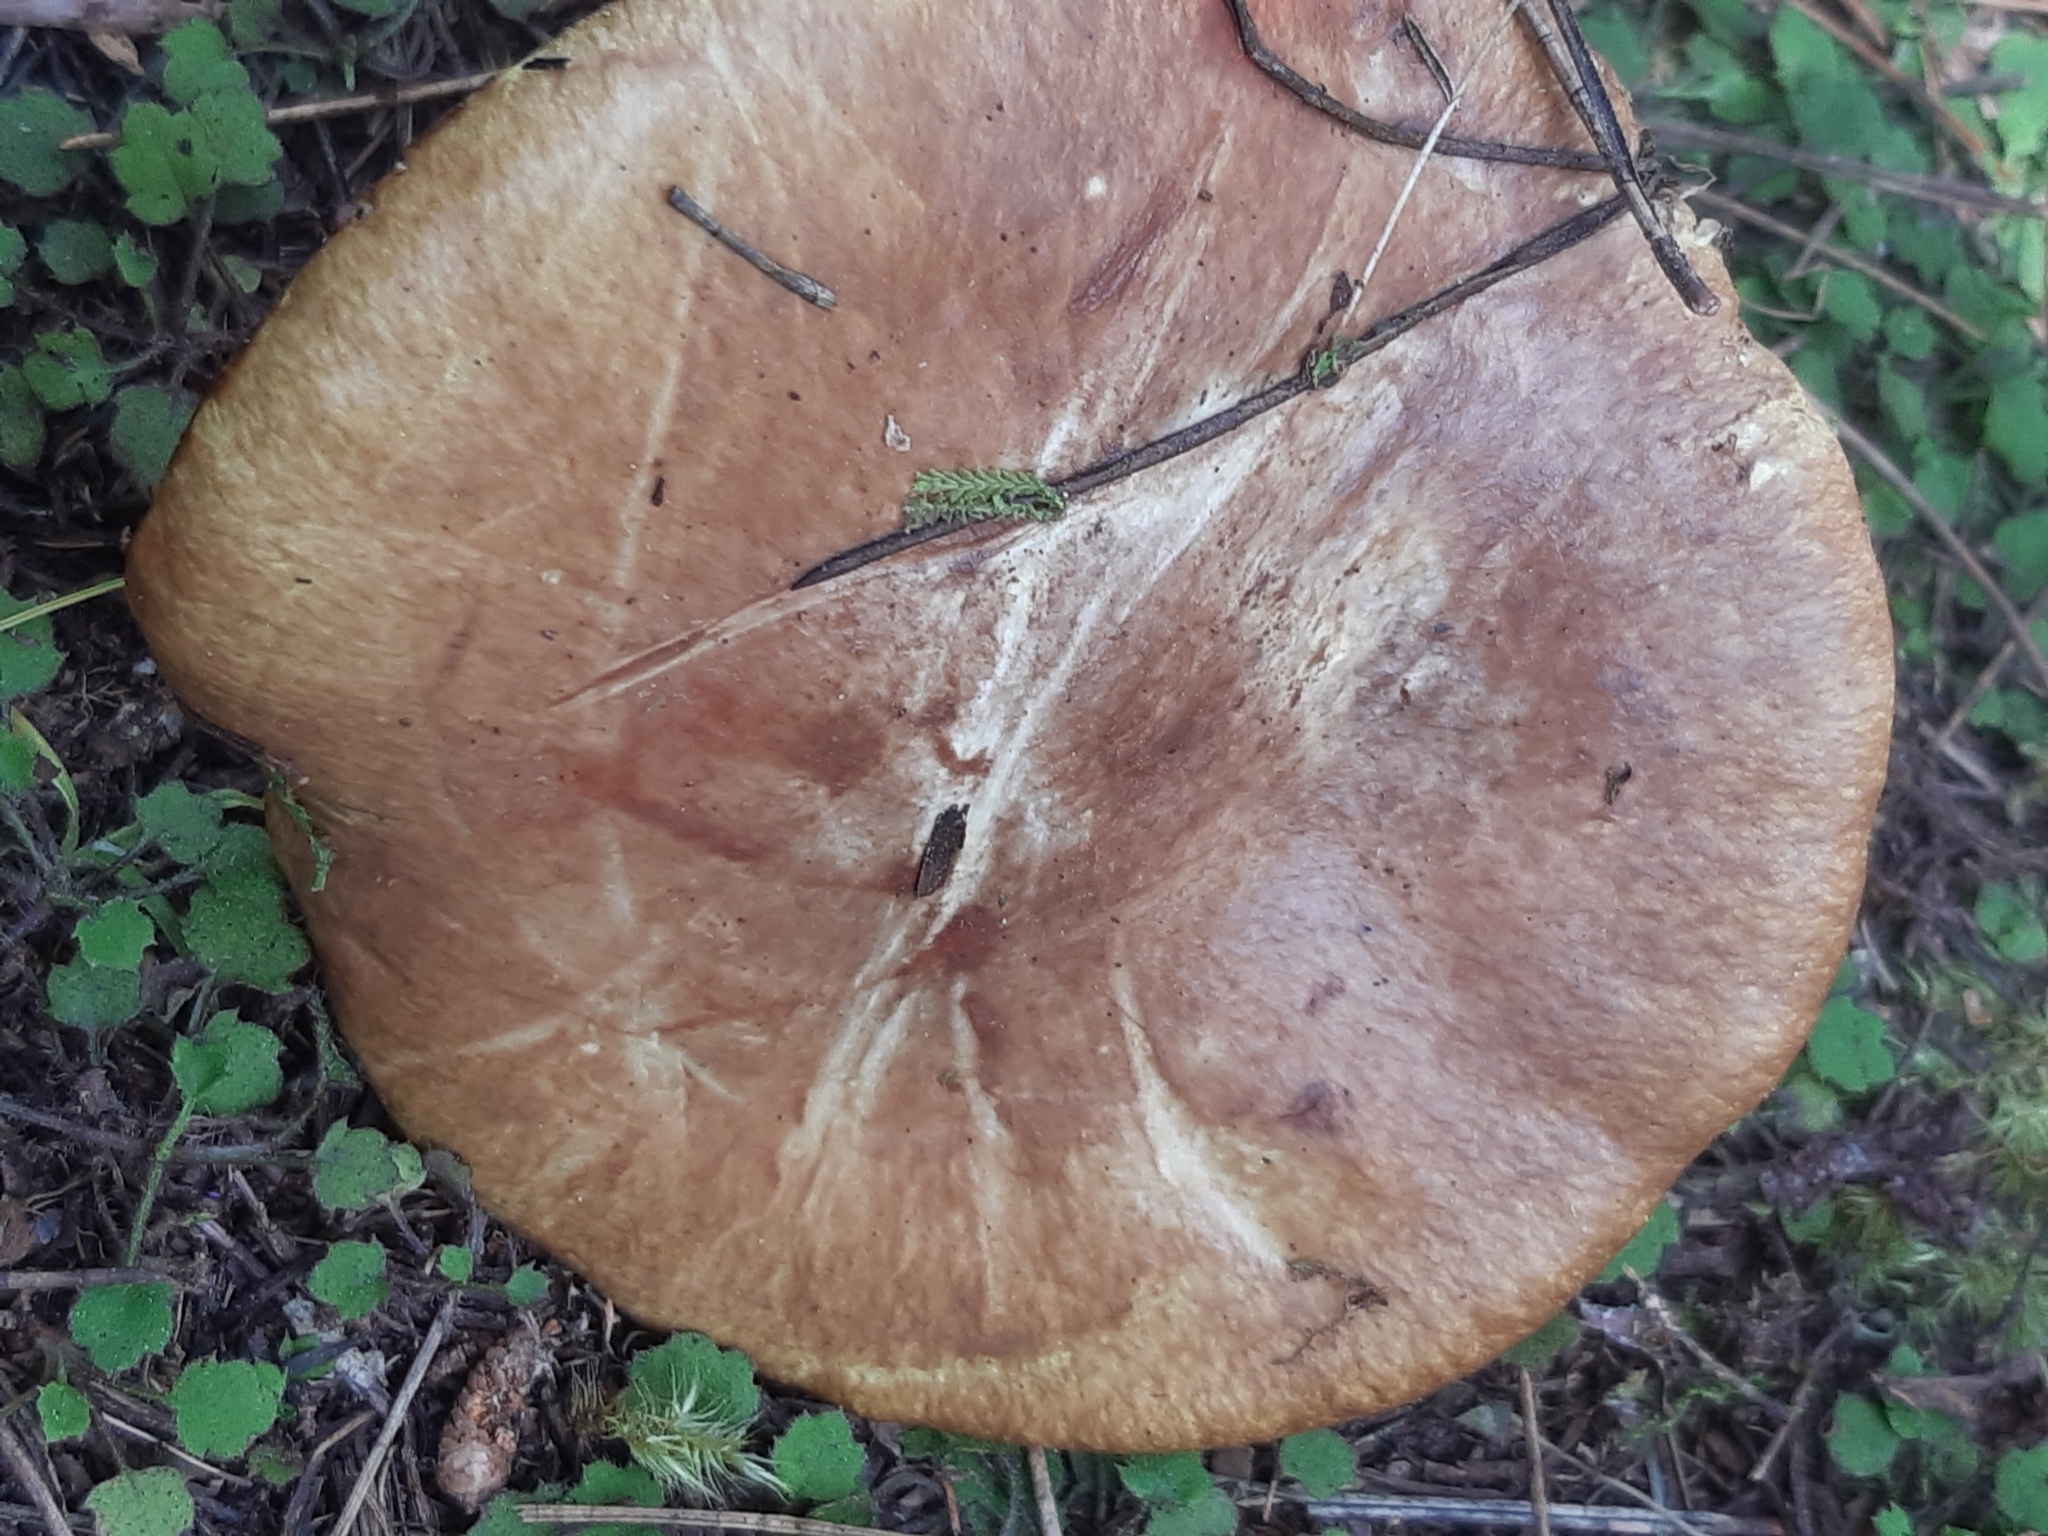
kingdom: Fungi
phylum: Basidiomycota
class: Agaricomycetes
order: Boletales
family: Suillaceae
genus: Suillus
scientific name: Suillus luteus
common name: Slippery jack
